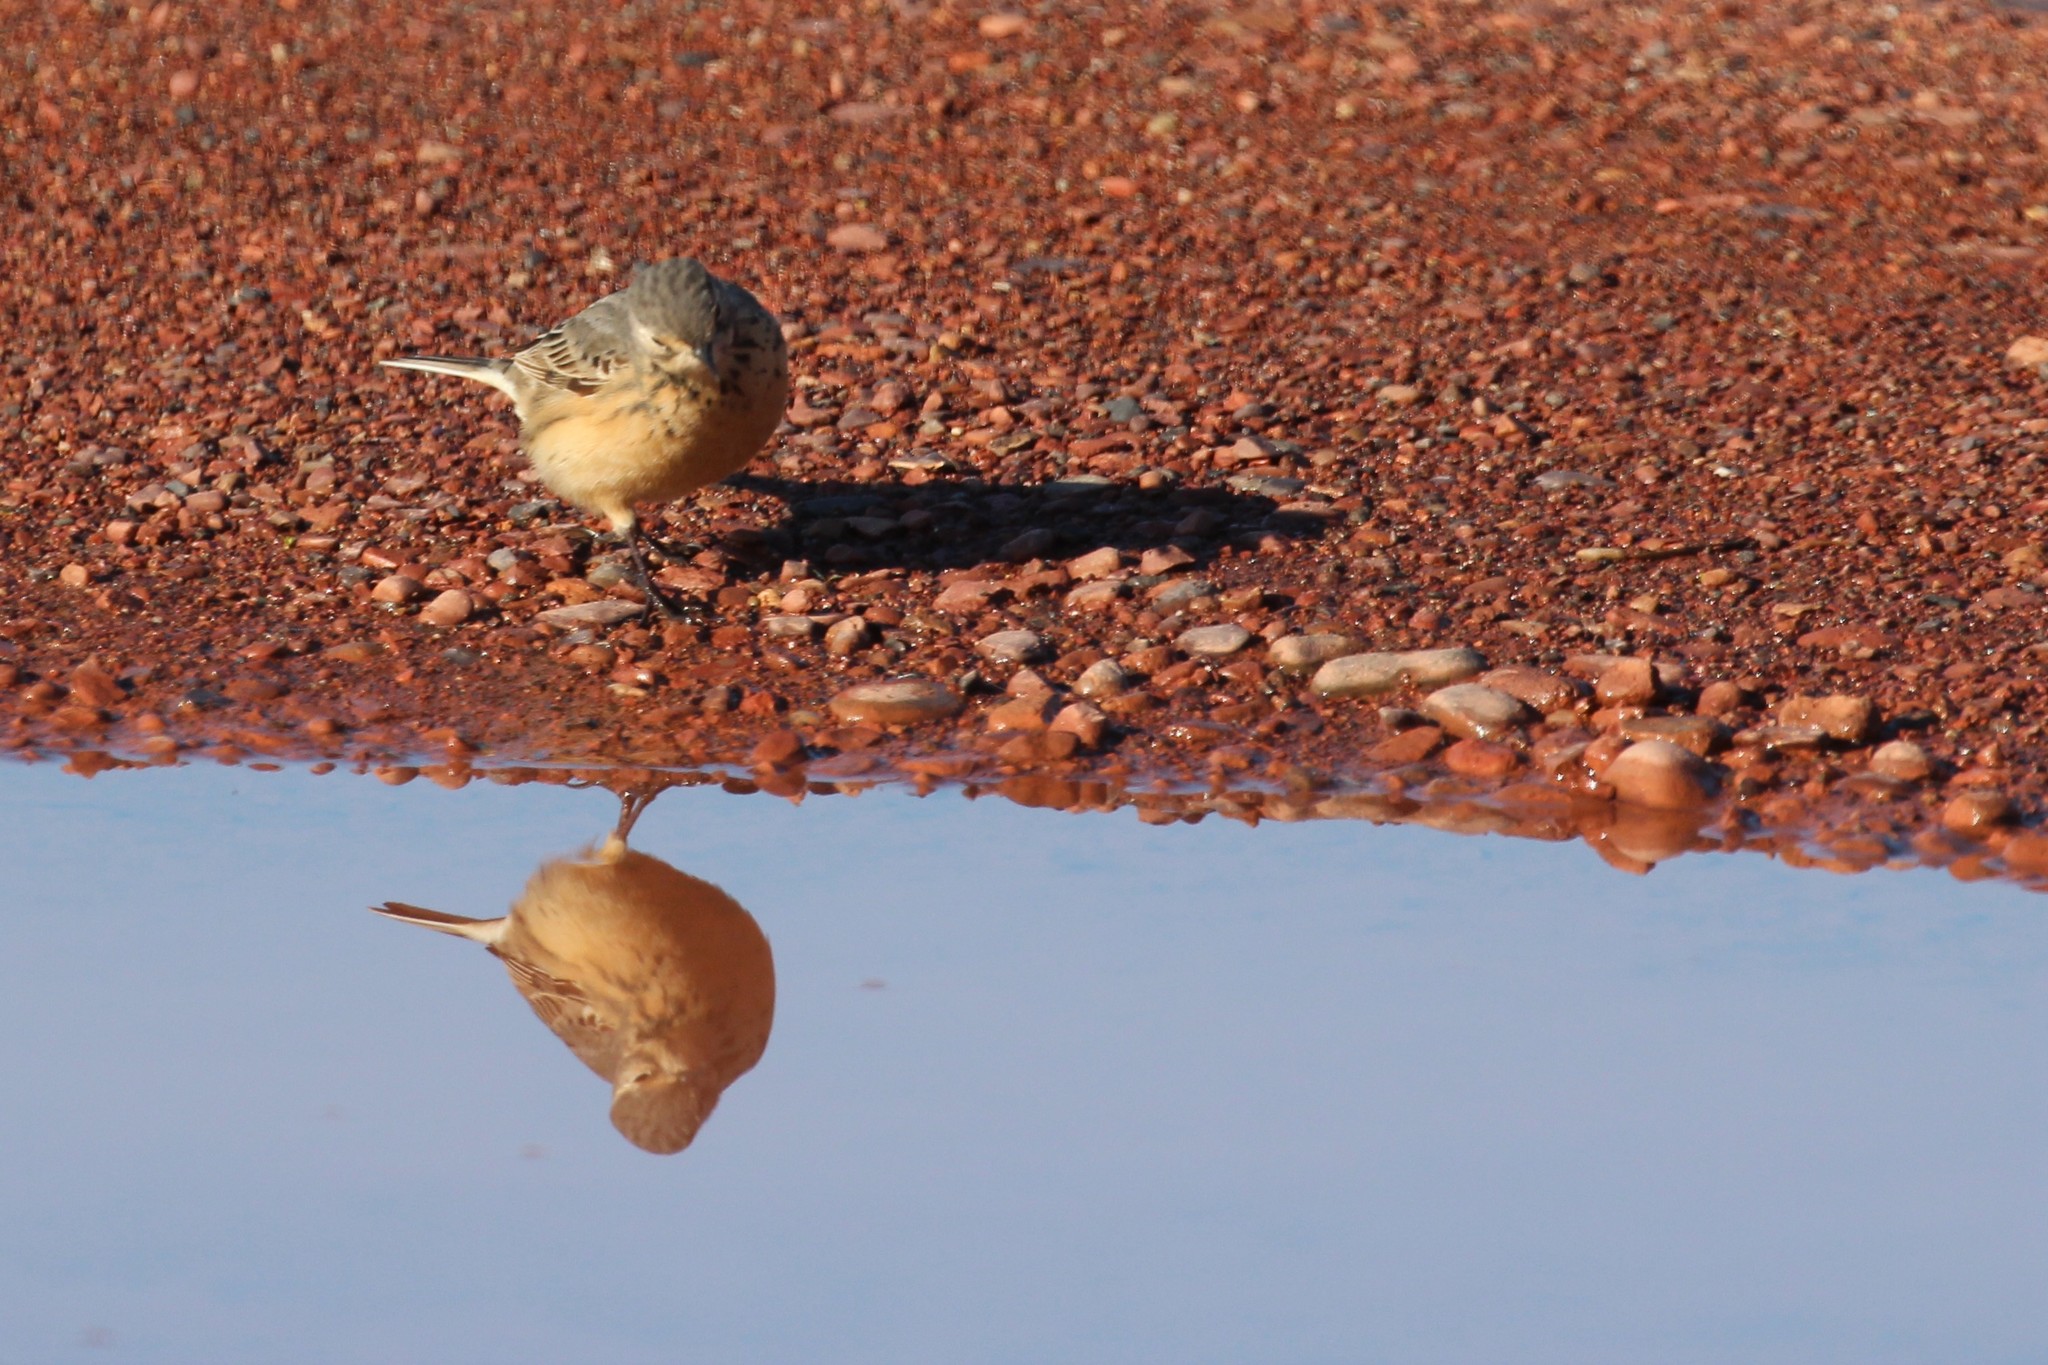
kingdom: Animalia
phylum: Chordata
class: Aves
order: Passeriformes
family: Motacillidae
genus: Anthus
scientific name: Anthus rubescens
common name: Buff-bellied pipit
